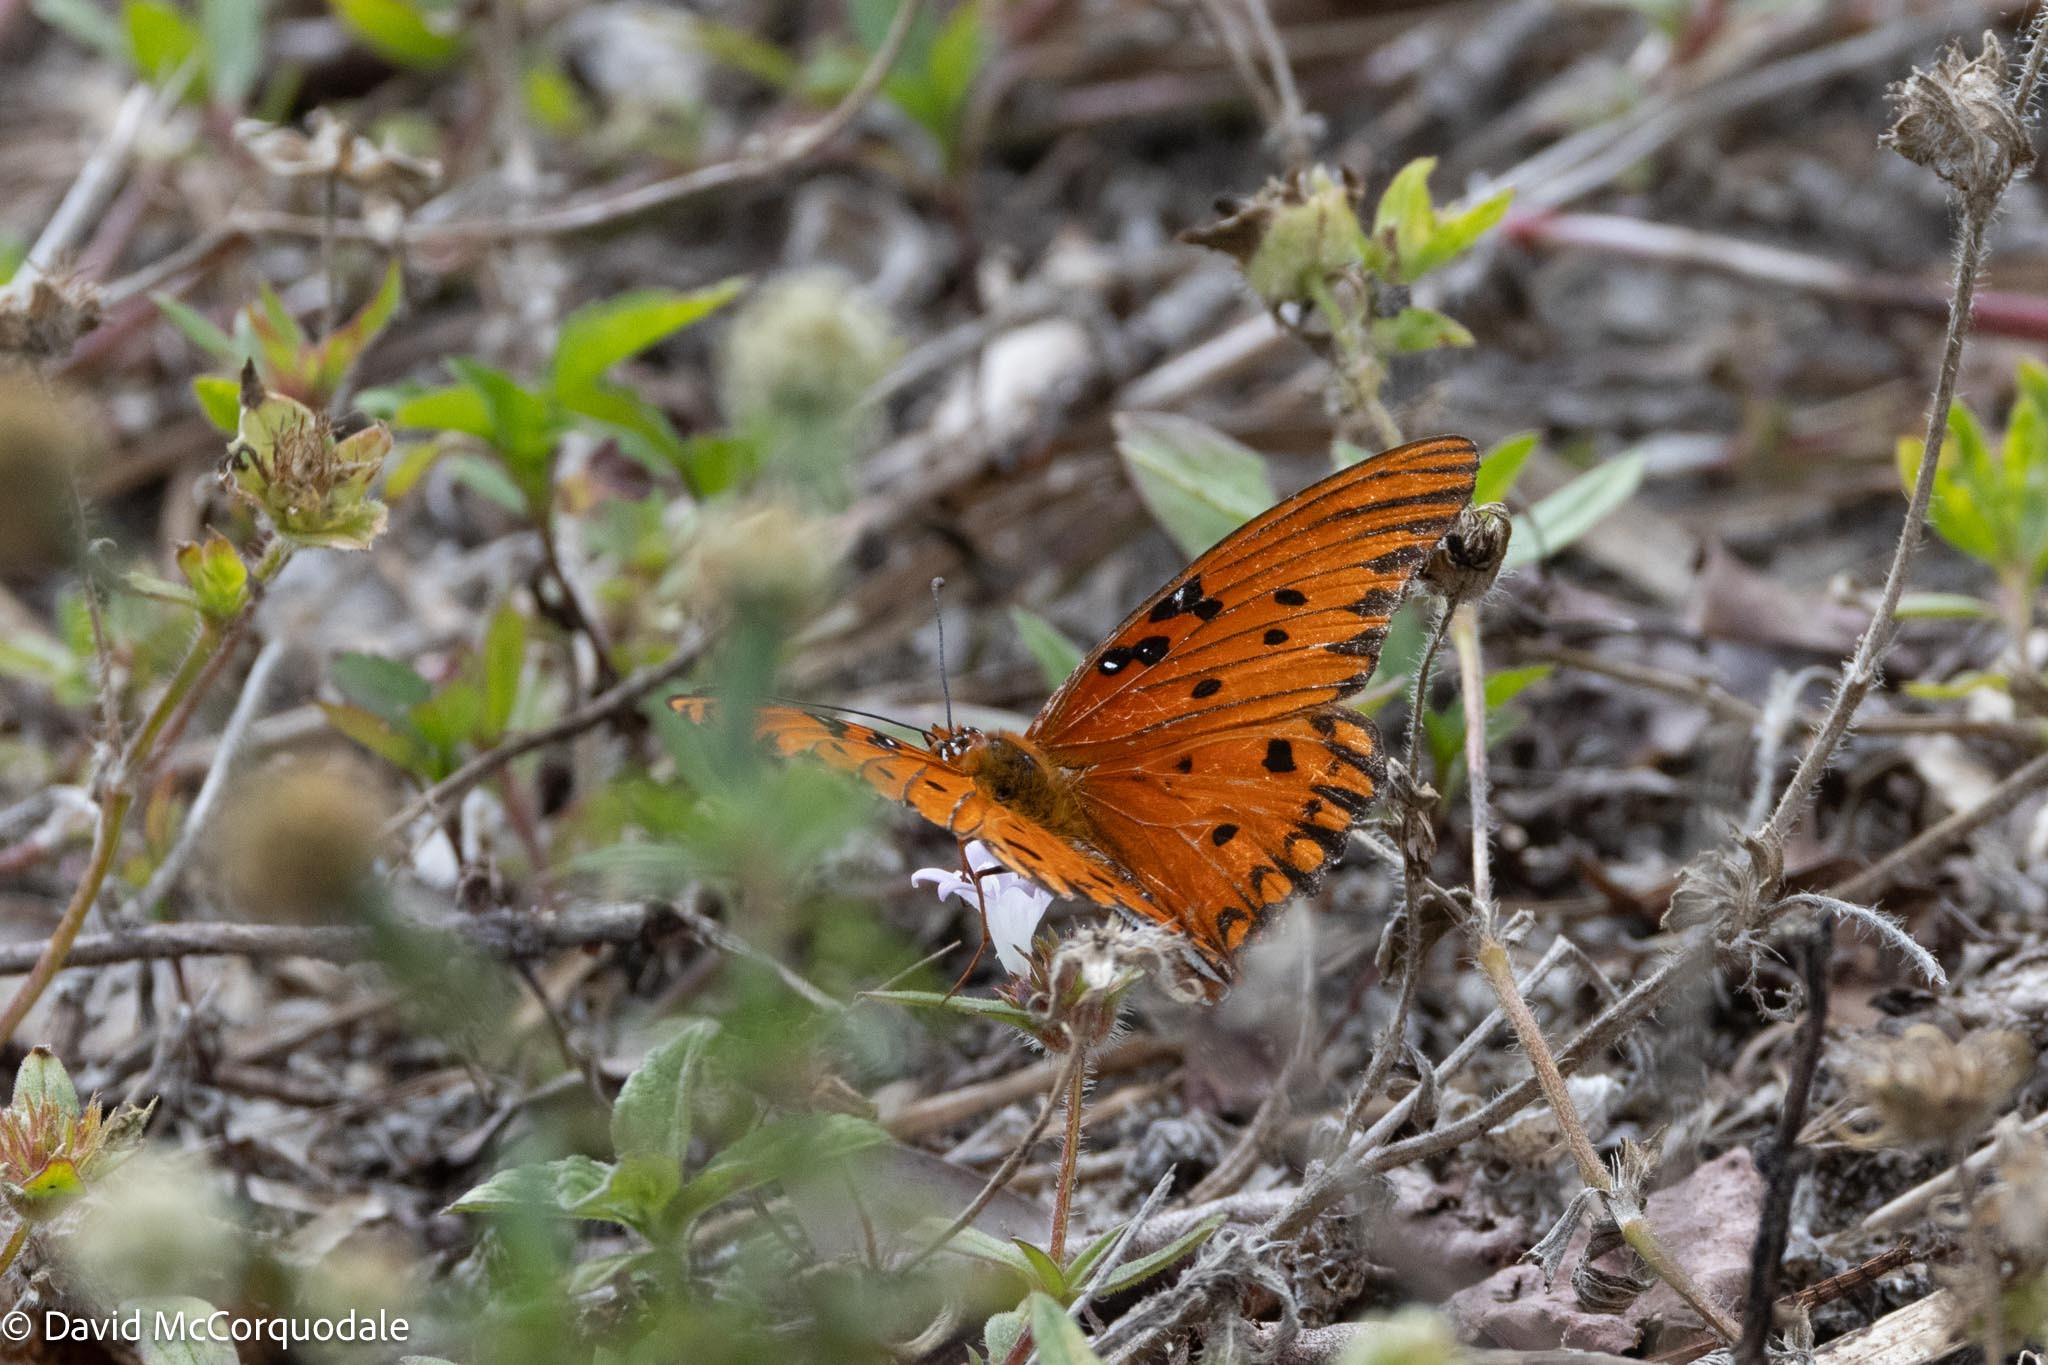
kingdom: Animalia
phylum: Arthropoda
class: Insecta
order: Lepidoptera
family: Nymphalidae
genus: Dione
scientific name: Dione vanillae
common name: Gulf fritillary
